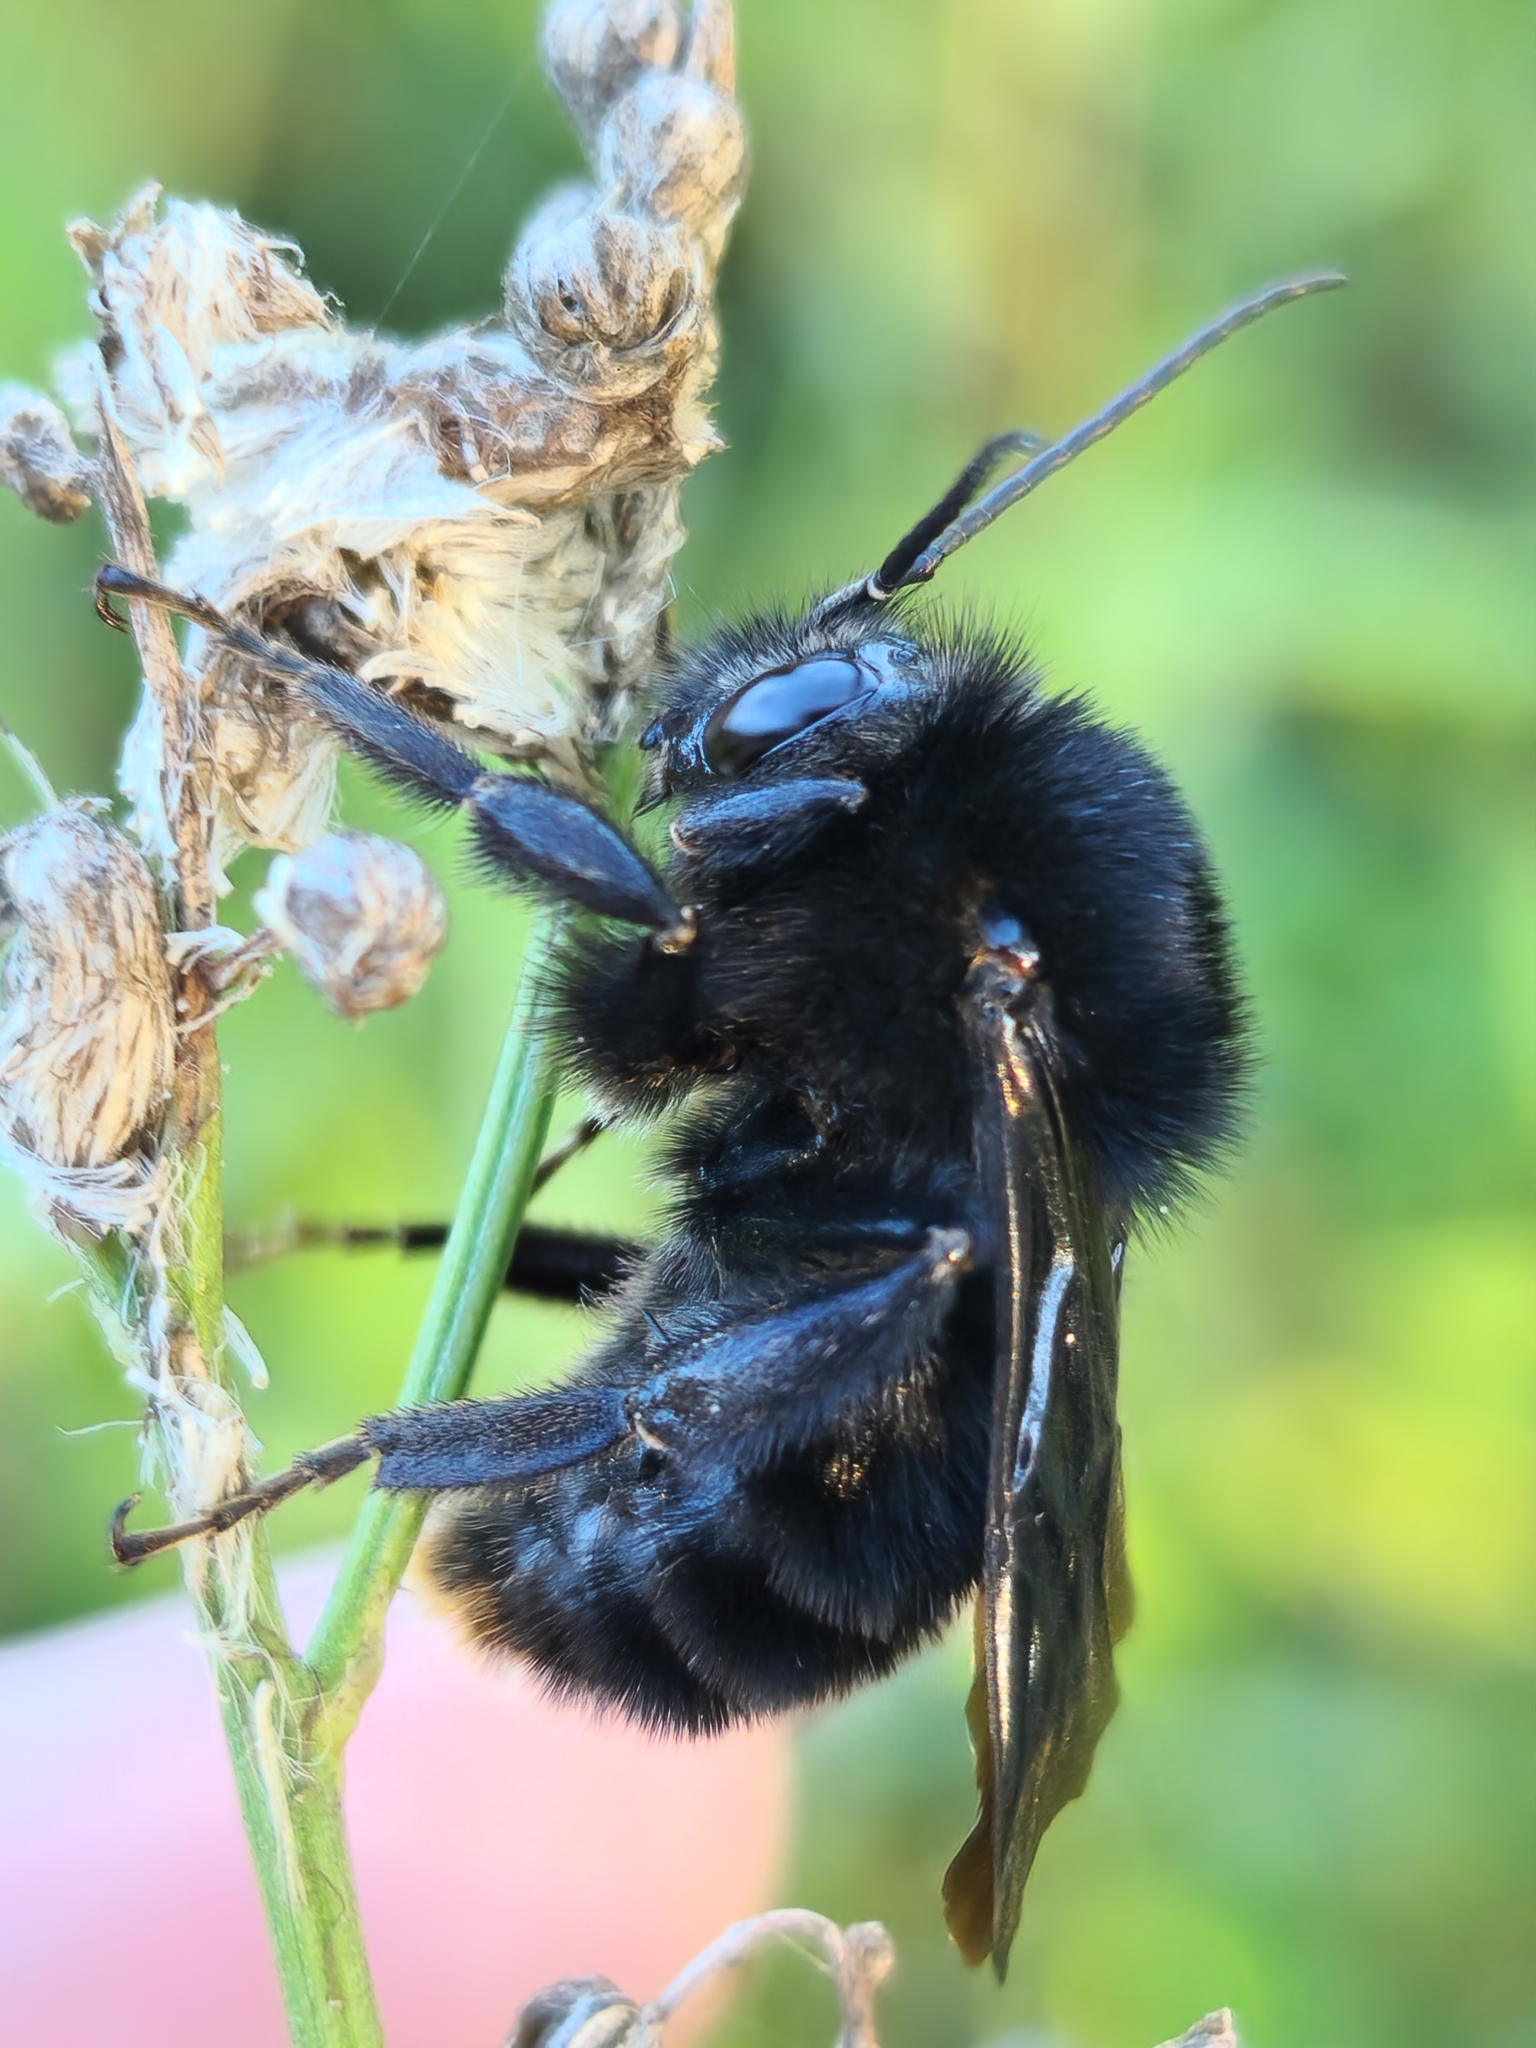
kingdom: Animalia
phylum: Arthropoda
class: Insecta
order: Hymenoptera
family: Apidae
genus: Bombus
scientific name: Bombus pauloensis
